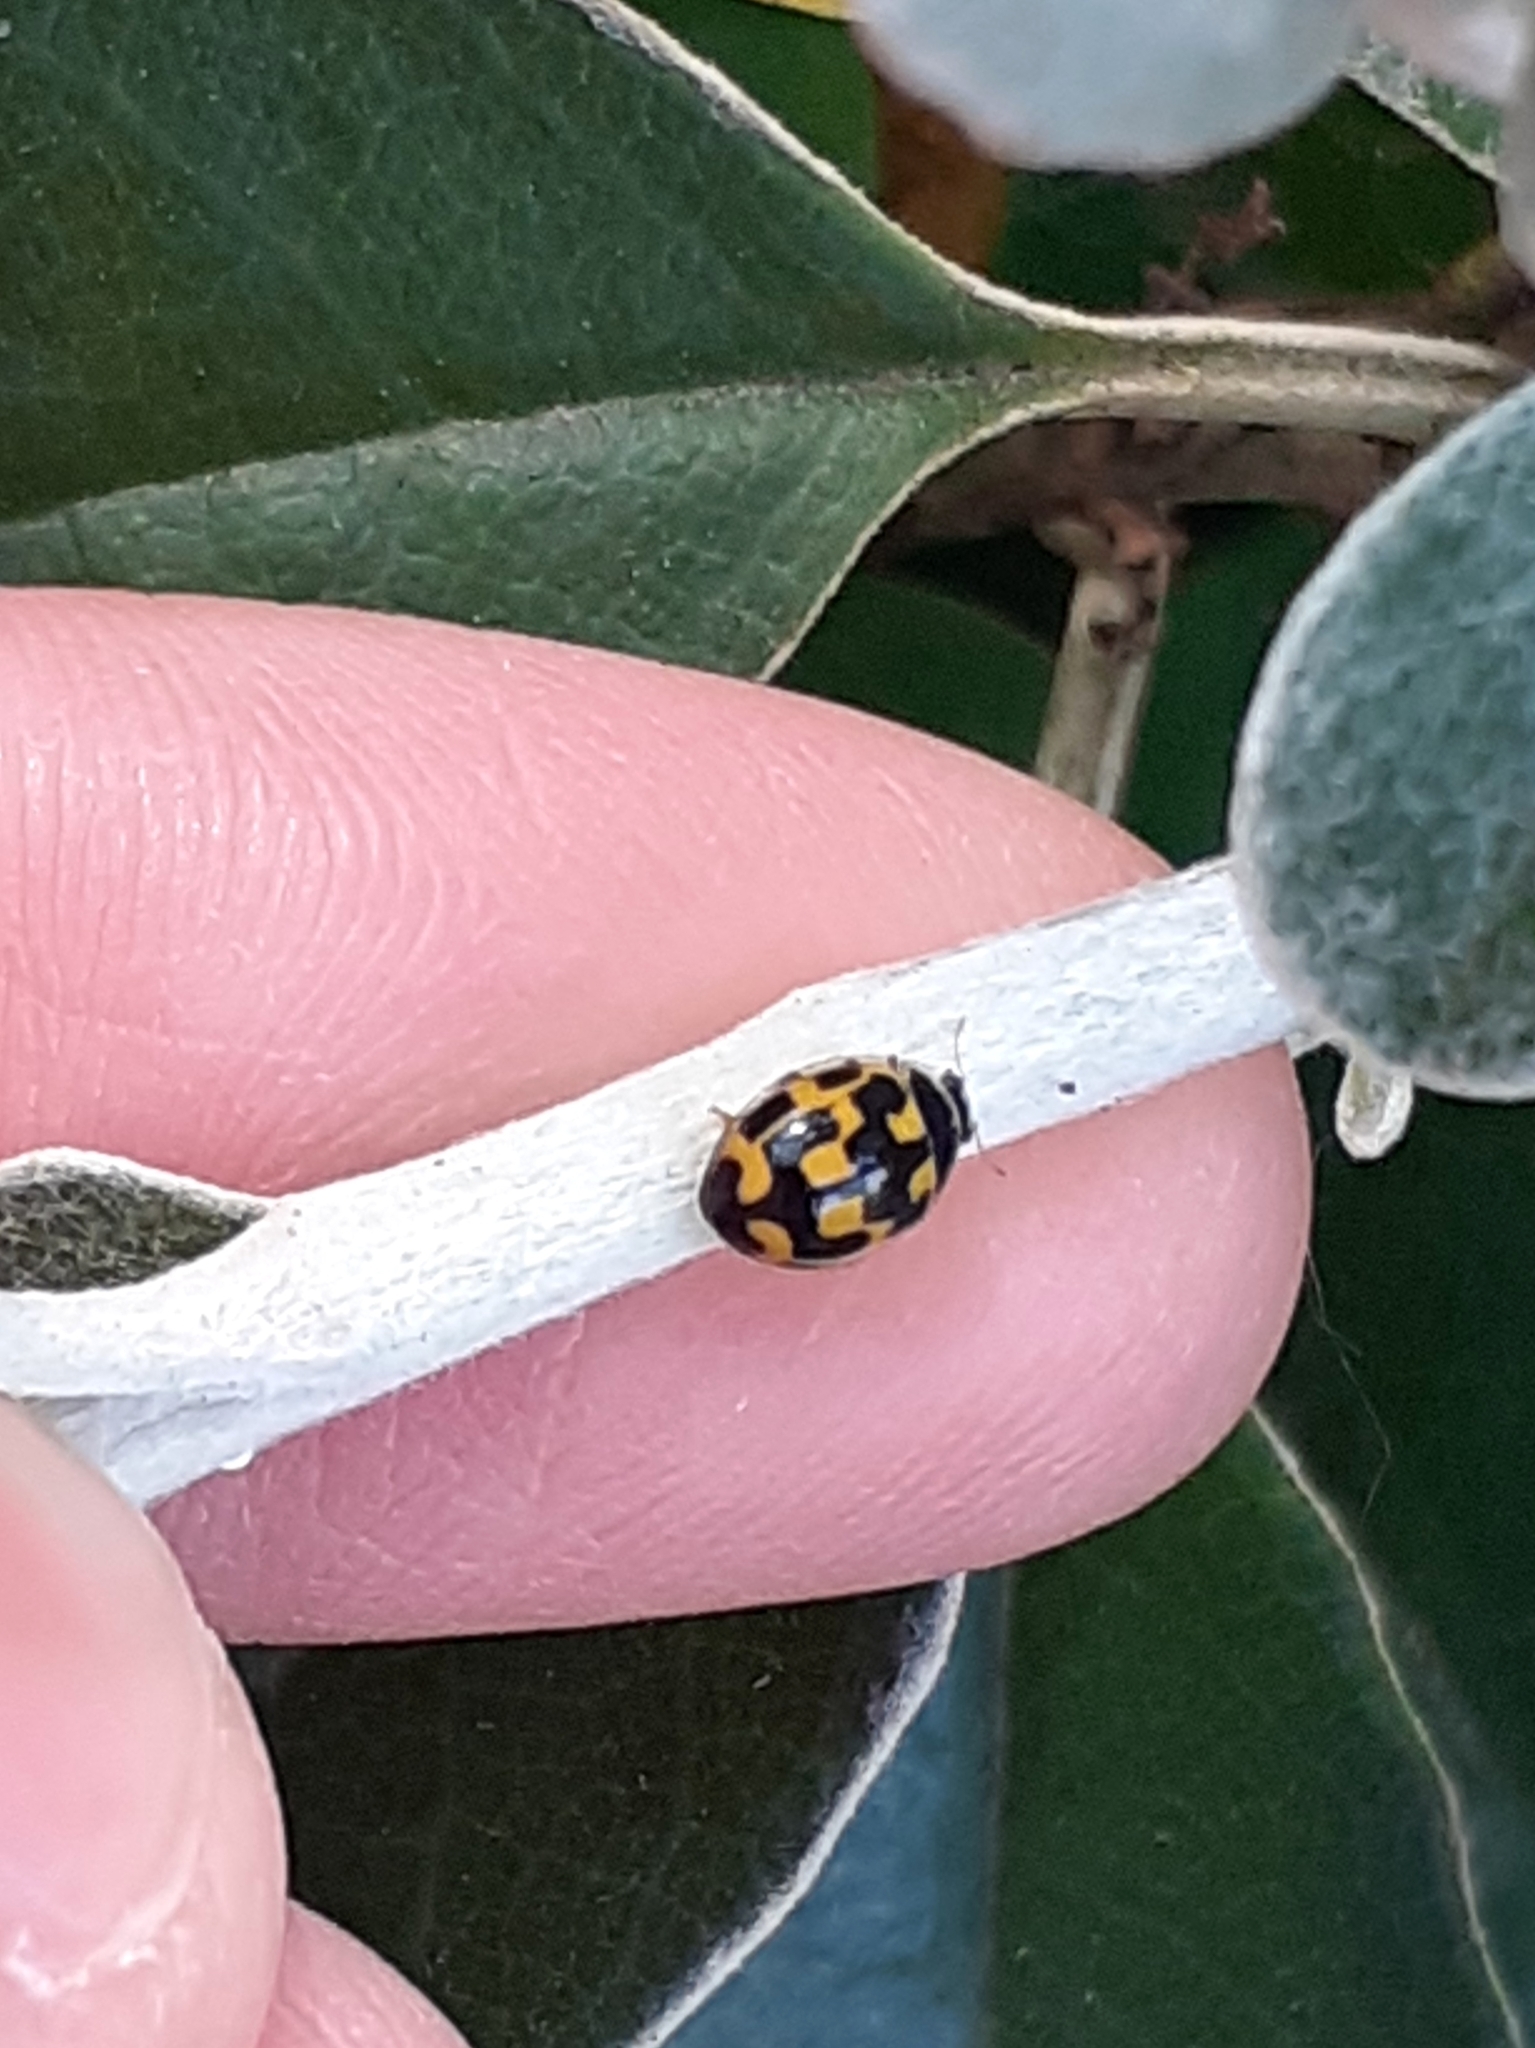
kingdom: Animalia
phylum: Arthropoda
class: Insecta
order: Coleoptera
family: Coccinellidae
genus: Propylaea
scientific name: Propylaea quatuordecimpunctata
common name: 14-spotted ladybird beetle
